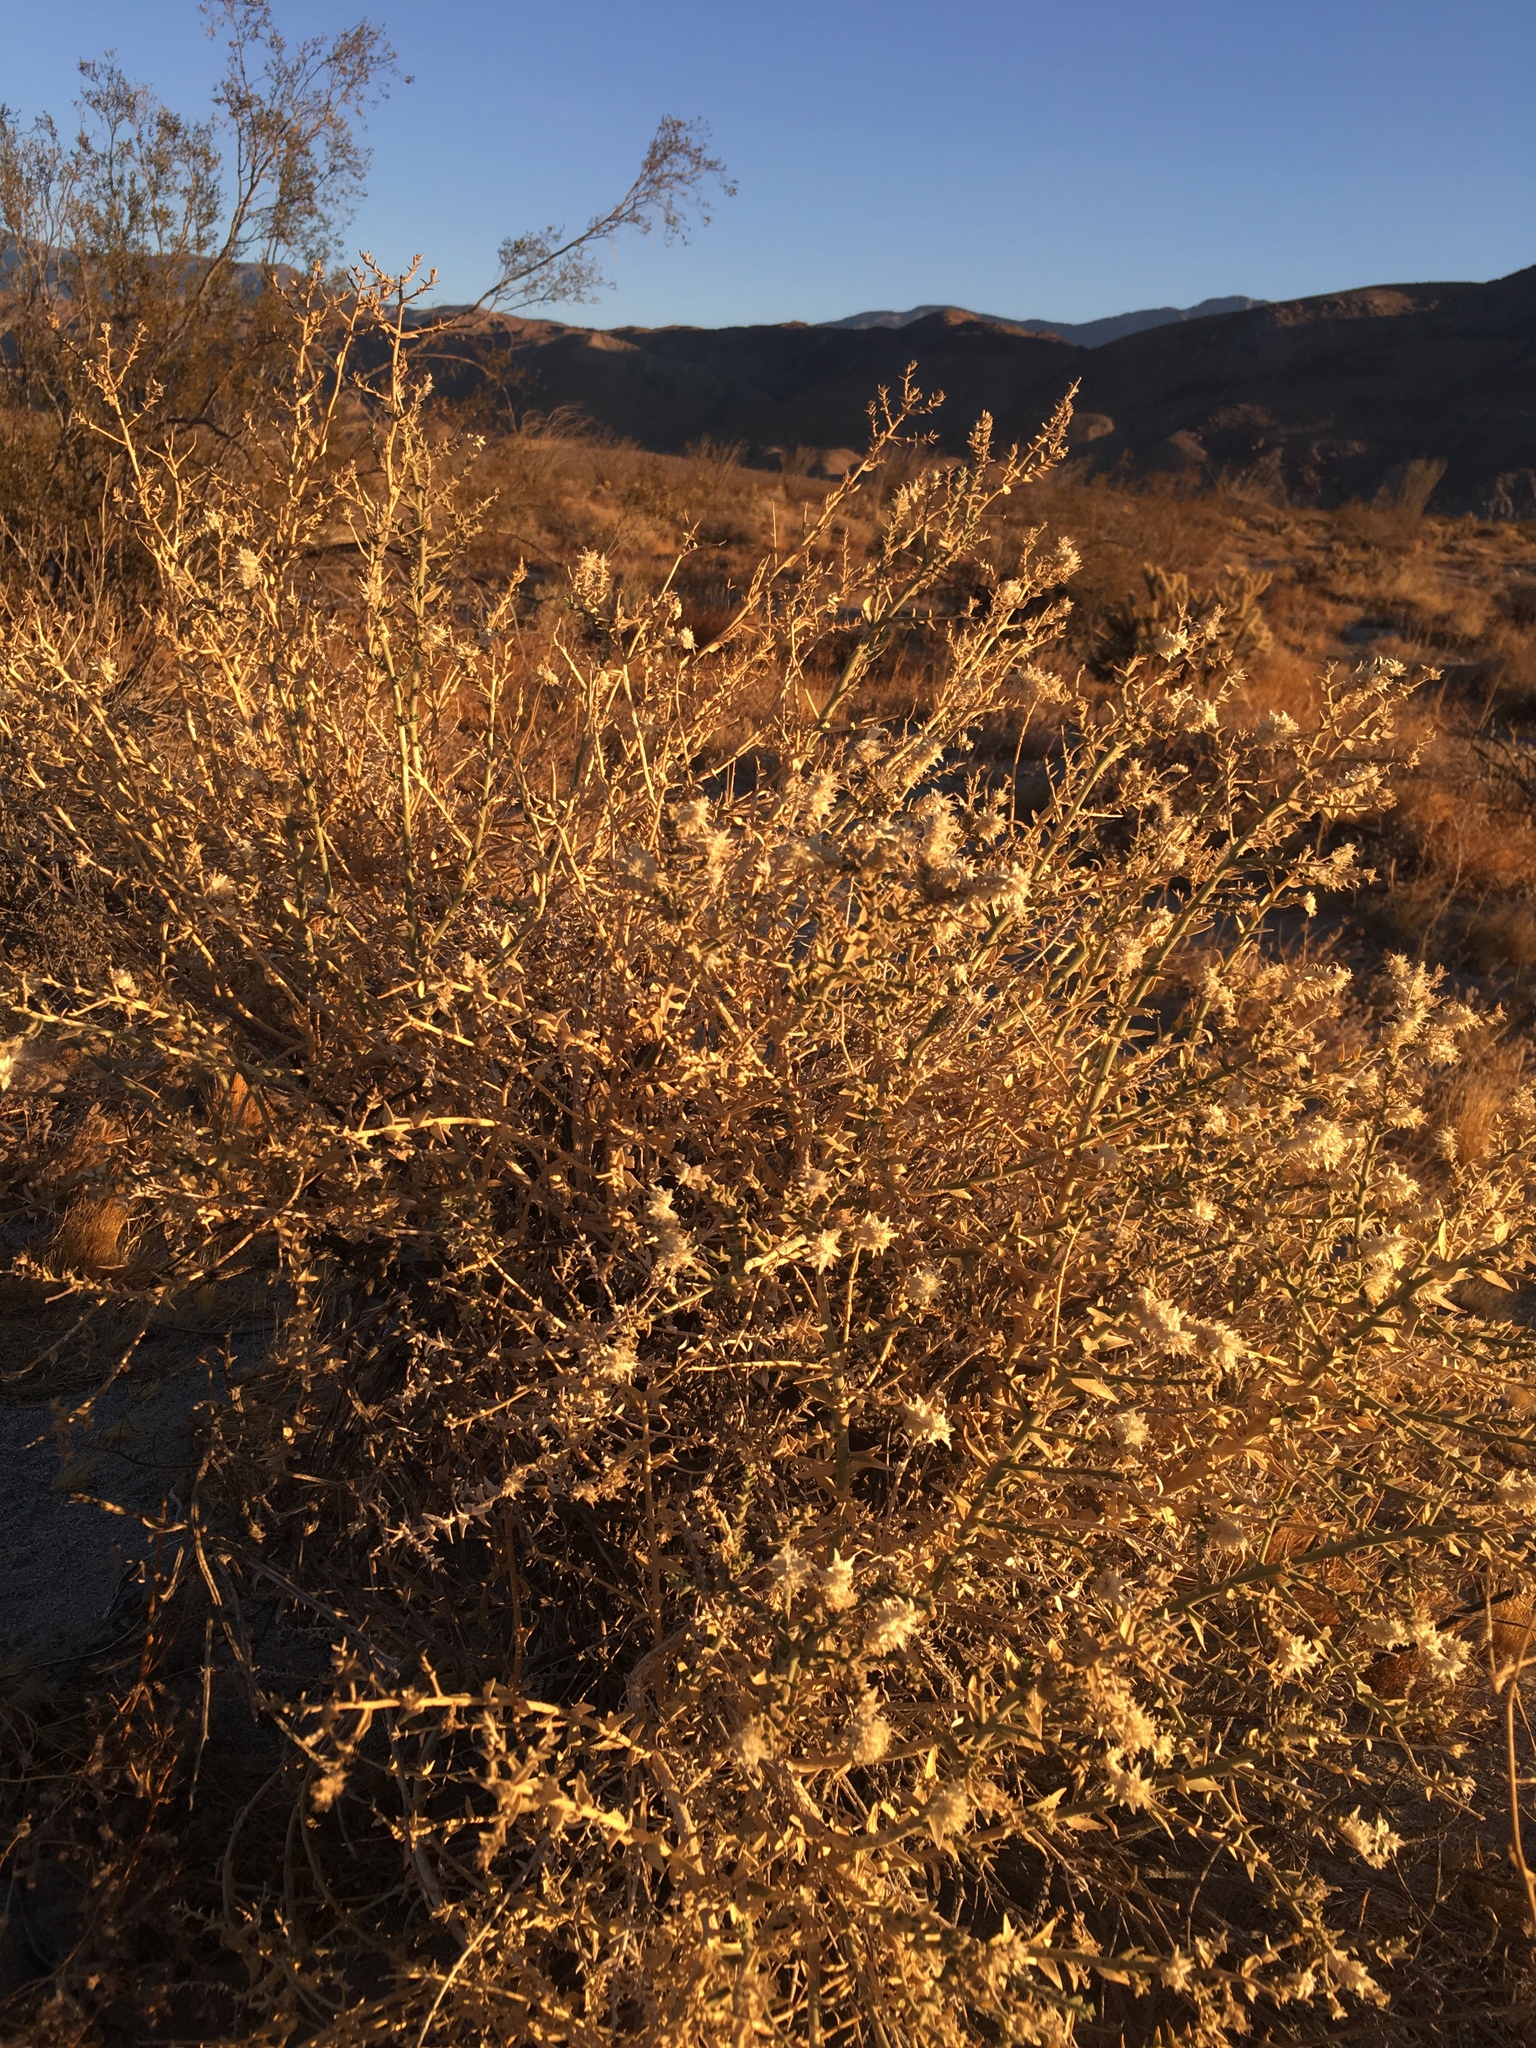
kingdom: Plantae
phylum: Tracheophyta
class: Magnoliopsida
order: Cornales
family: Loasaceae
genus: Petalonyx
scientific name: Petalonyx thurberi
